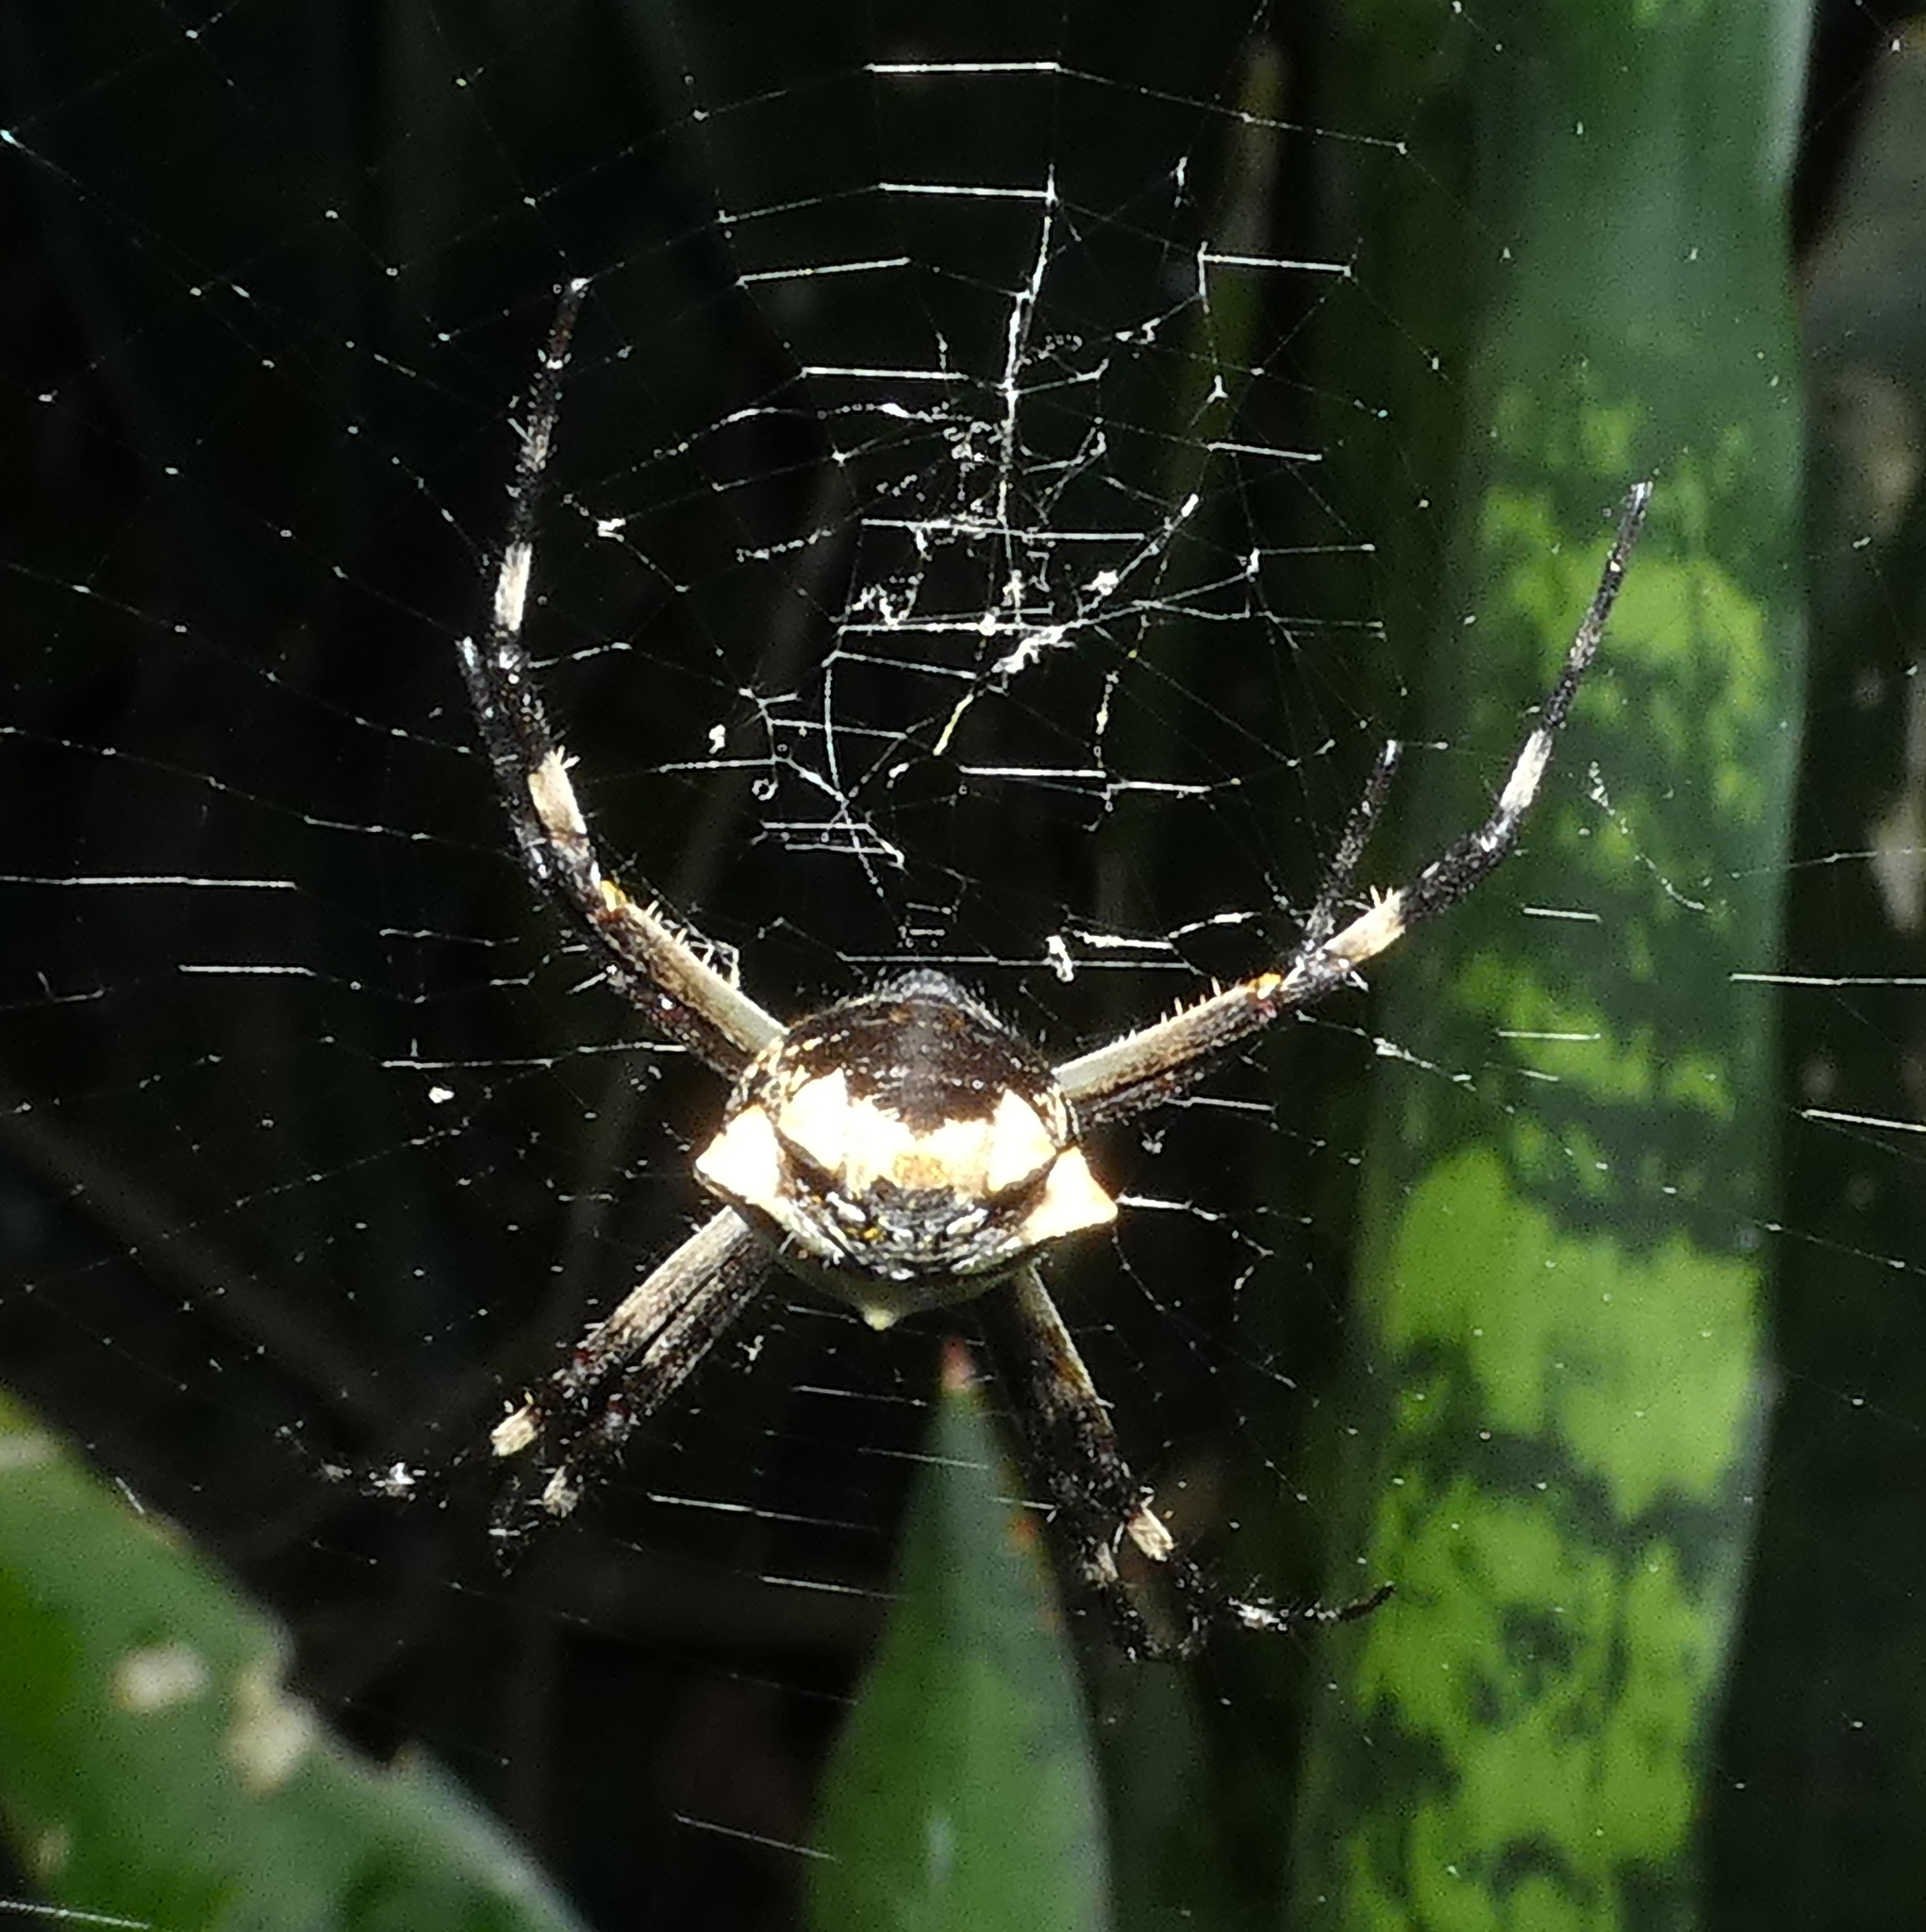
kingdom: Animalia
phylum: Arthropoda
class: Arachnida
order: Araneae
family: Araneidae
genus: Argiope
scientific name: Argiope argentata
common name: Orb weavers
